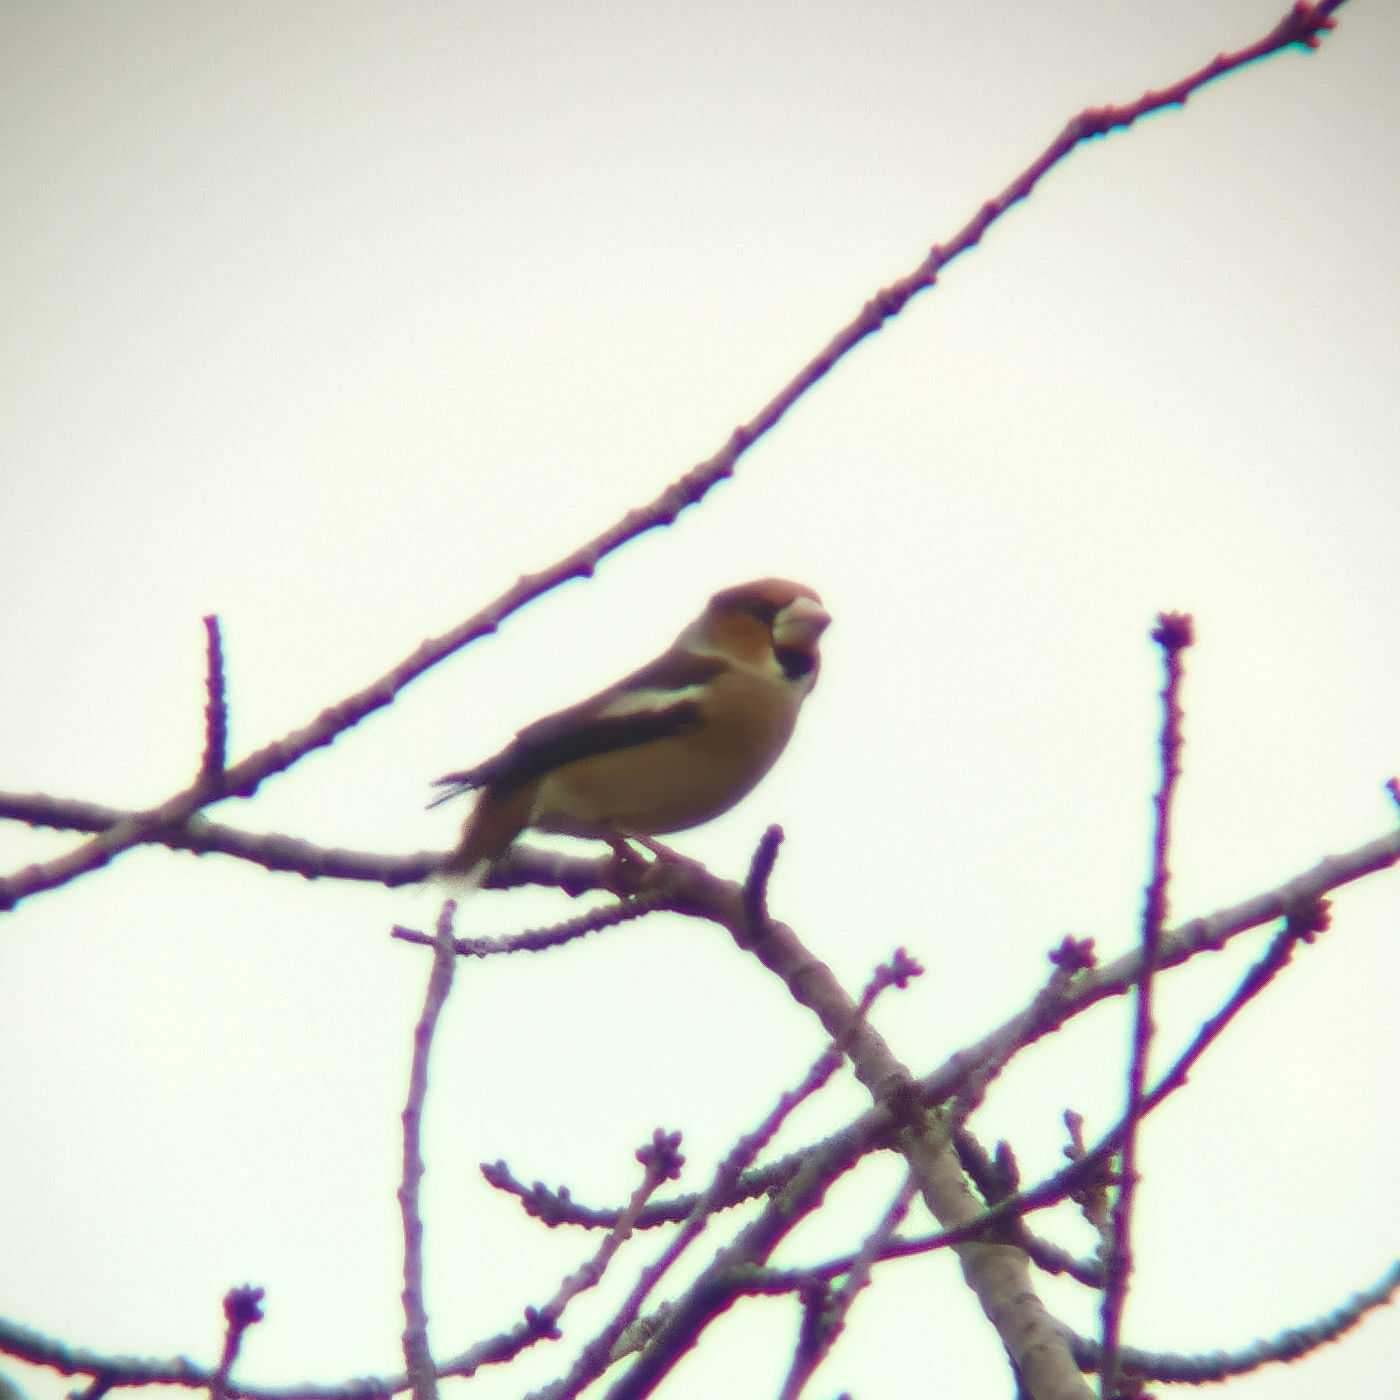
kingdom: Animalia
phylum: Chordata
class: Aves
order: Passeriformes
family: Fringillidae
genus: Coccothraustes
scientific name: Coccothraustes coccothraustes
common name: Hawfinch
